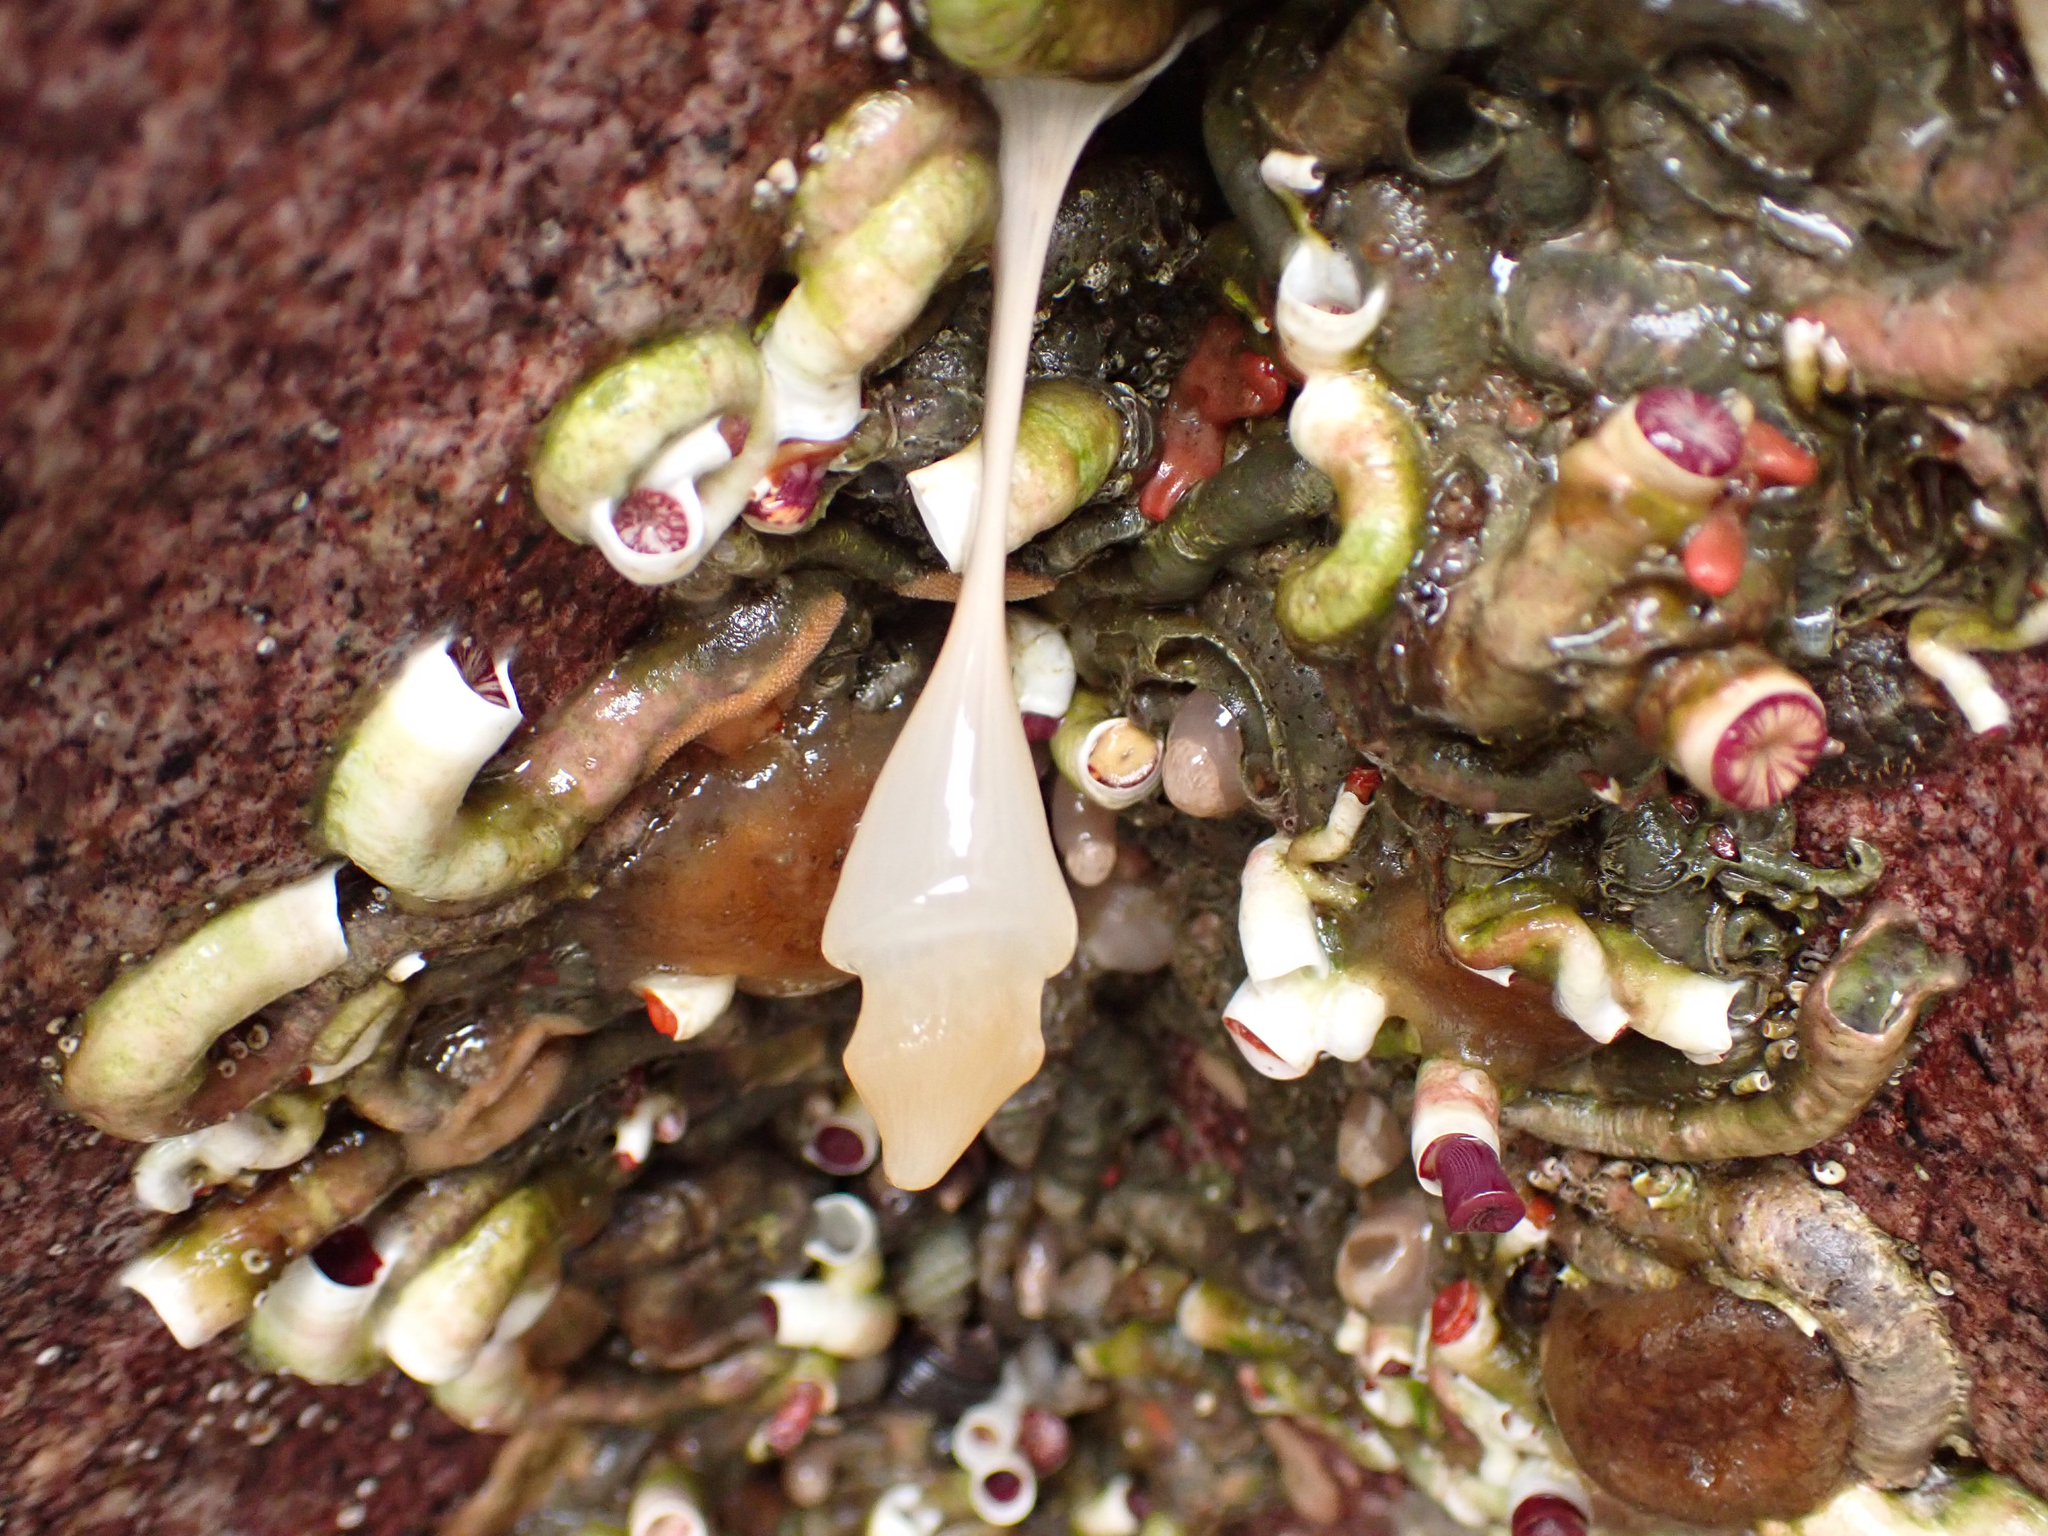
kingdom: Animalia
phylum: Cnidaria
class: Anthozoa
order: Actiniaria
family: Metridiidae
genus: Metridium
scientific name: Metridium senile
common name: Clonal plumose anemone
